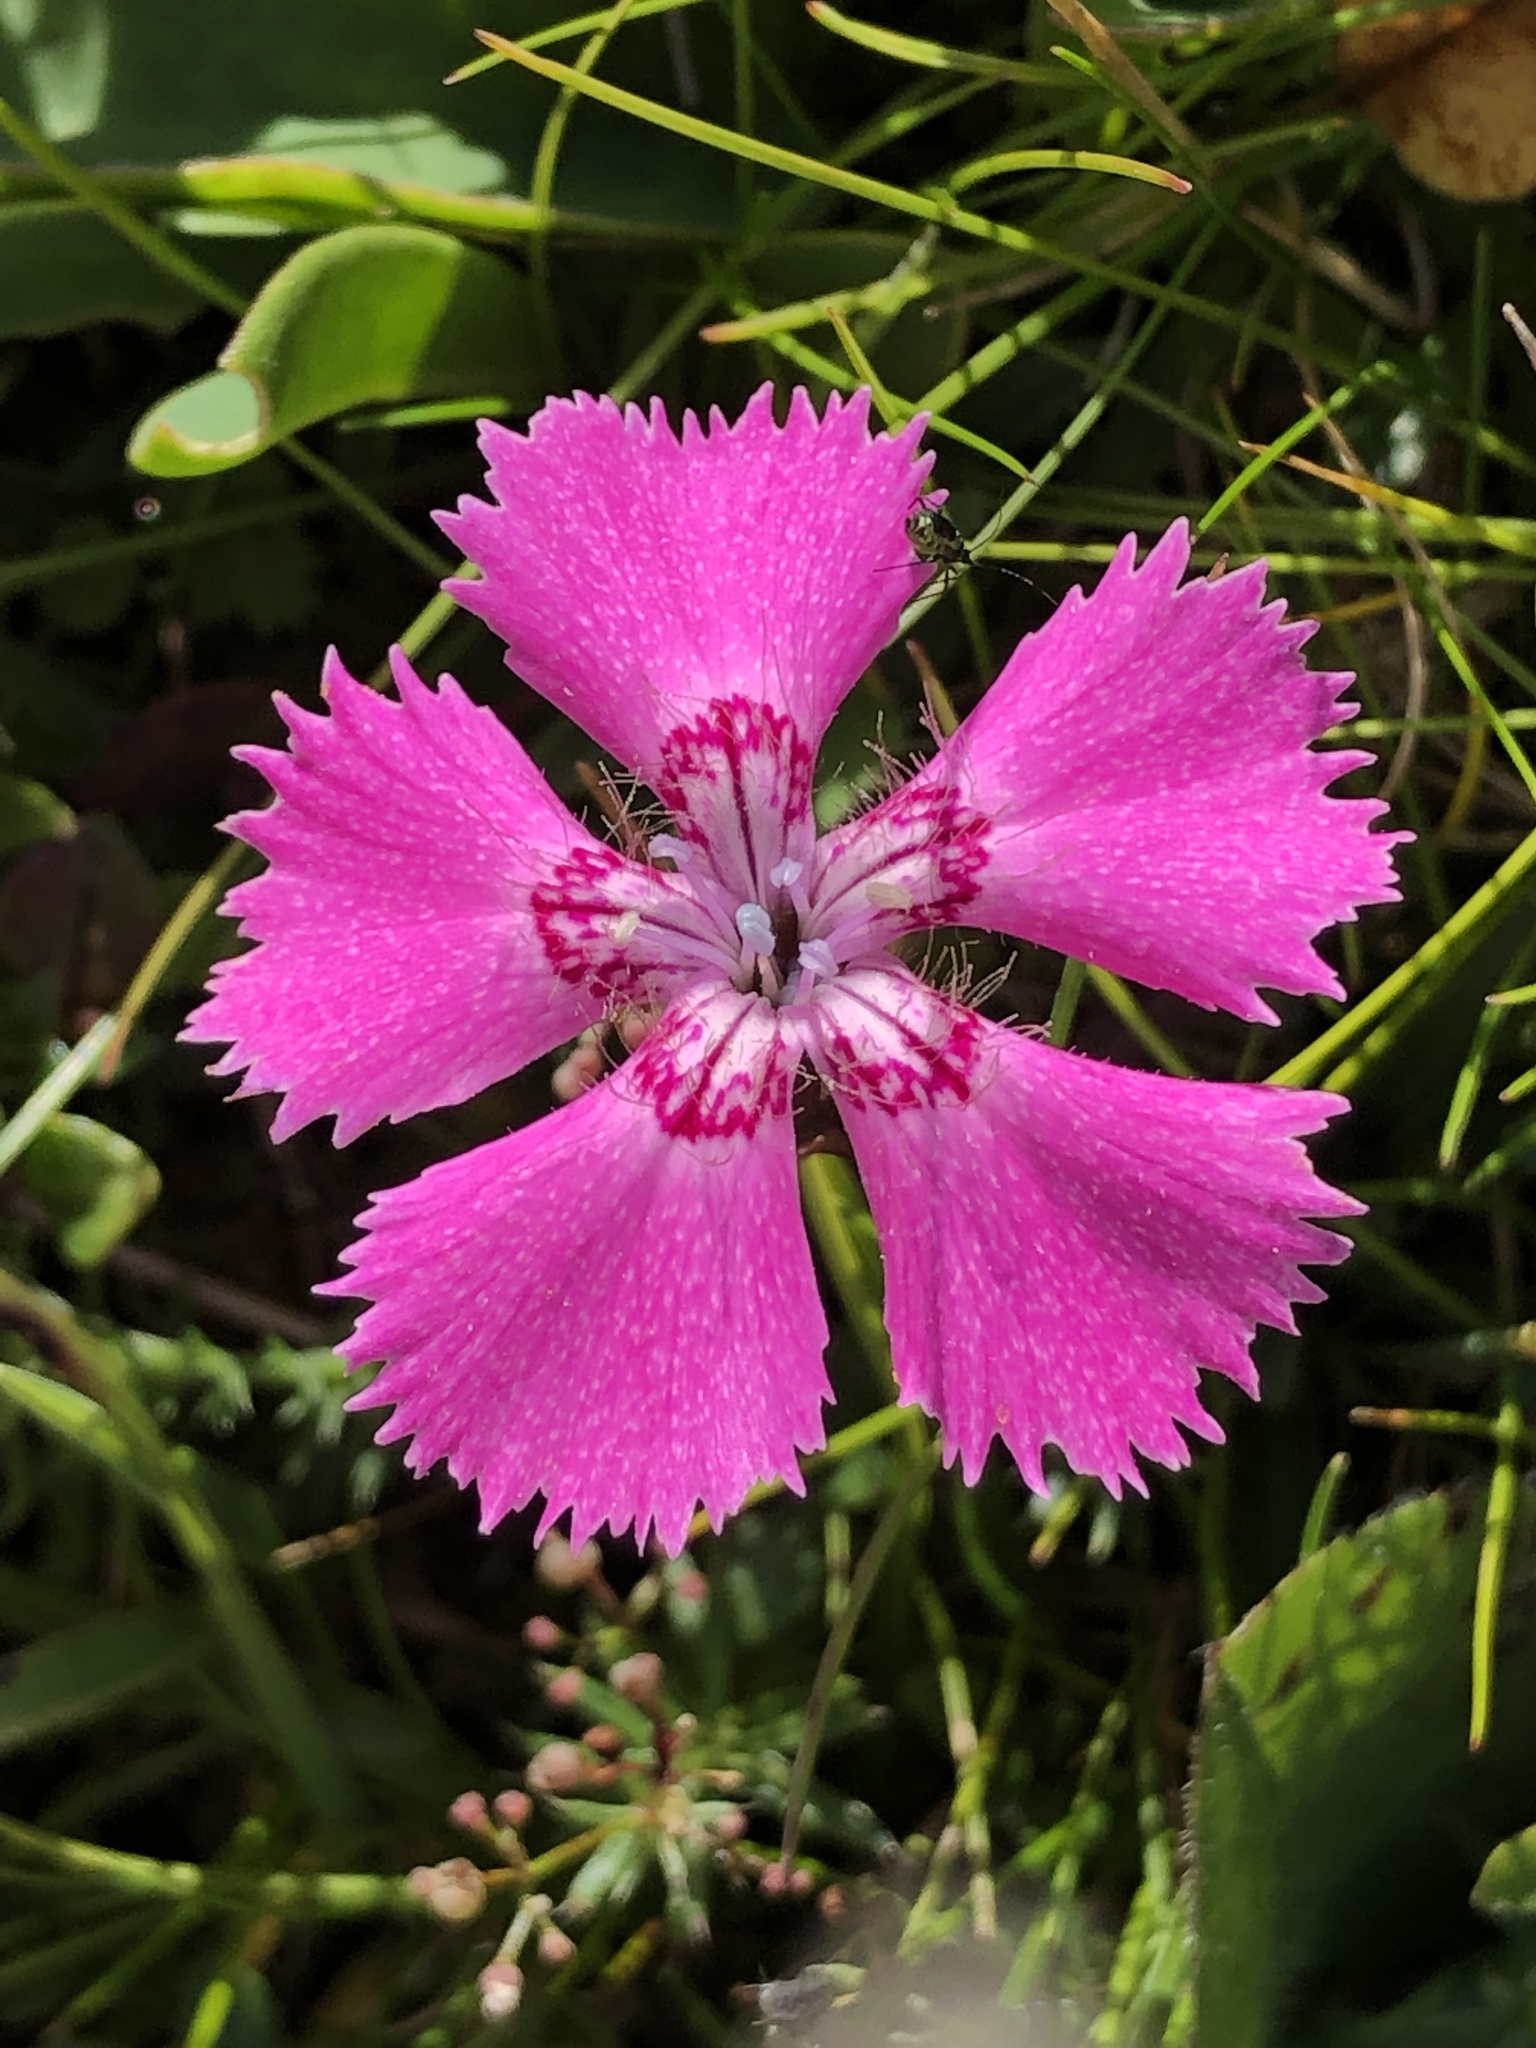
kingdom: Plantae
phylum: Tracheophyta
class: Magnoliopsida
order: Caryophyllales
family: Caryophyllaceae
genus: Dianthus
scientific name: Dianthus alpinus
